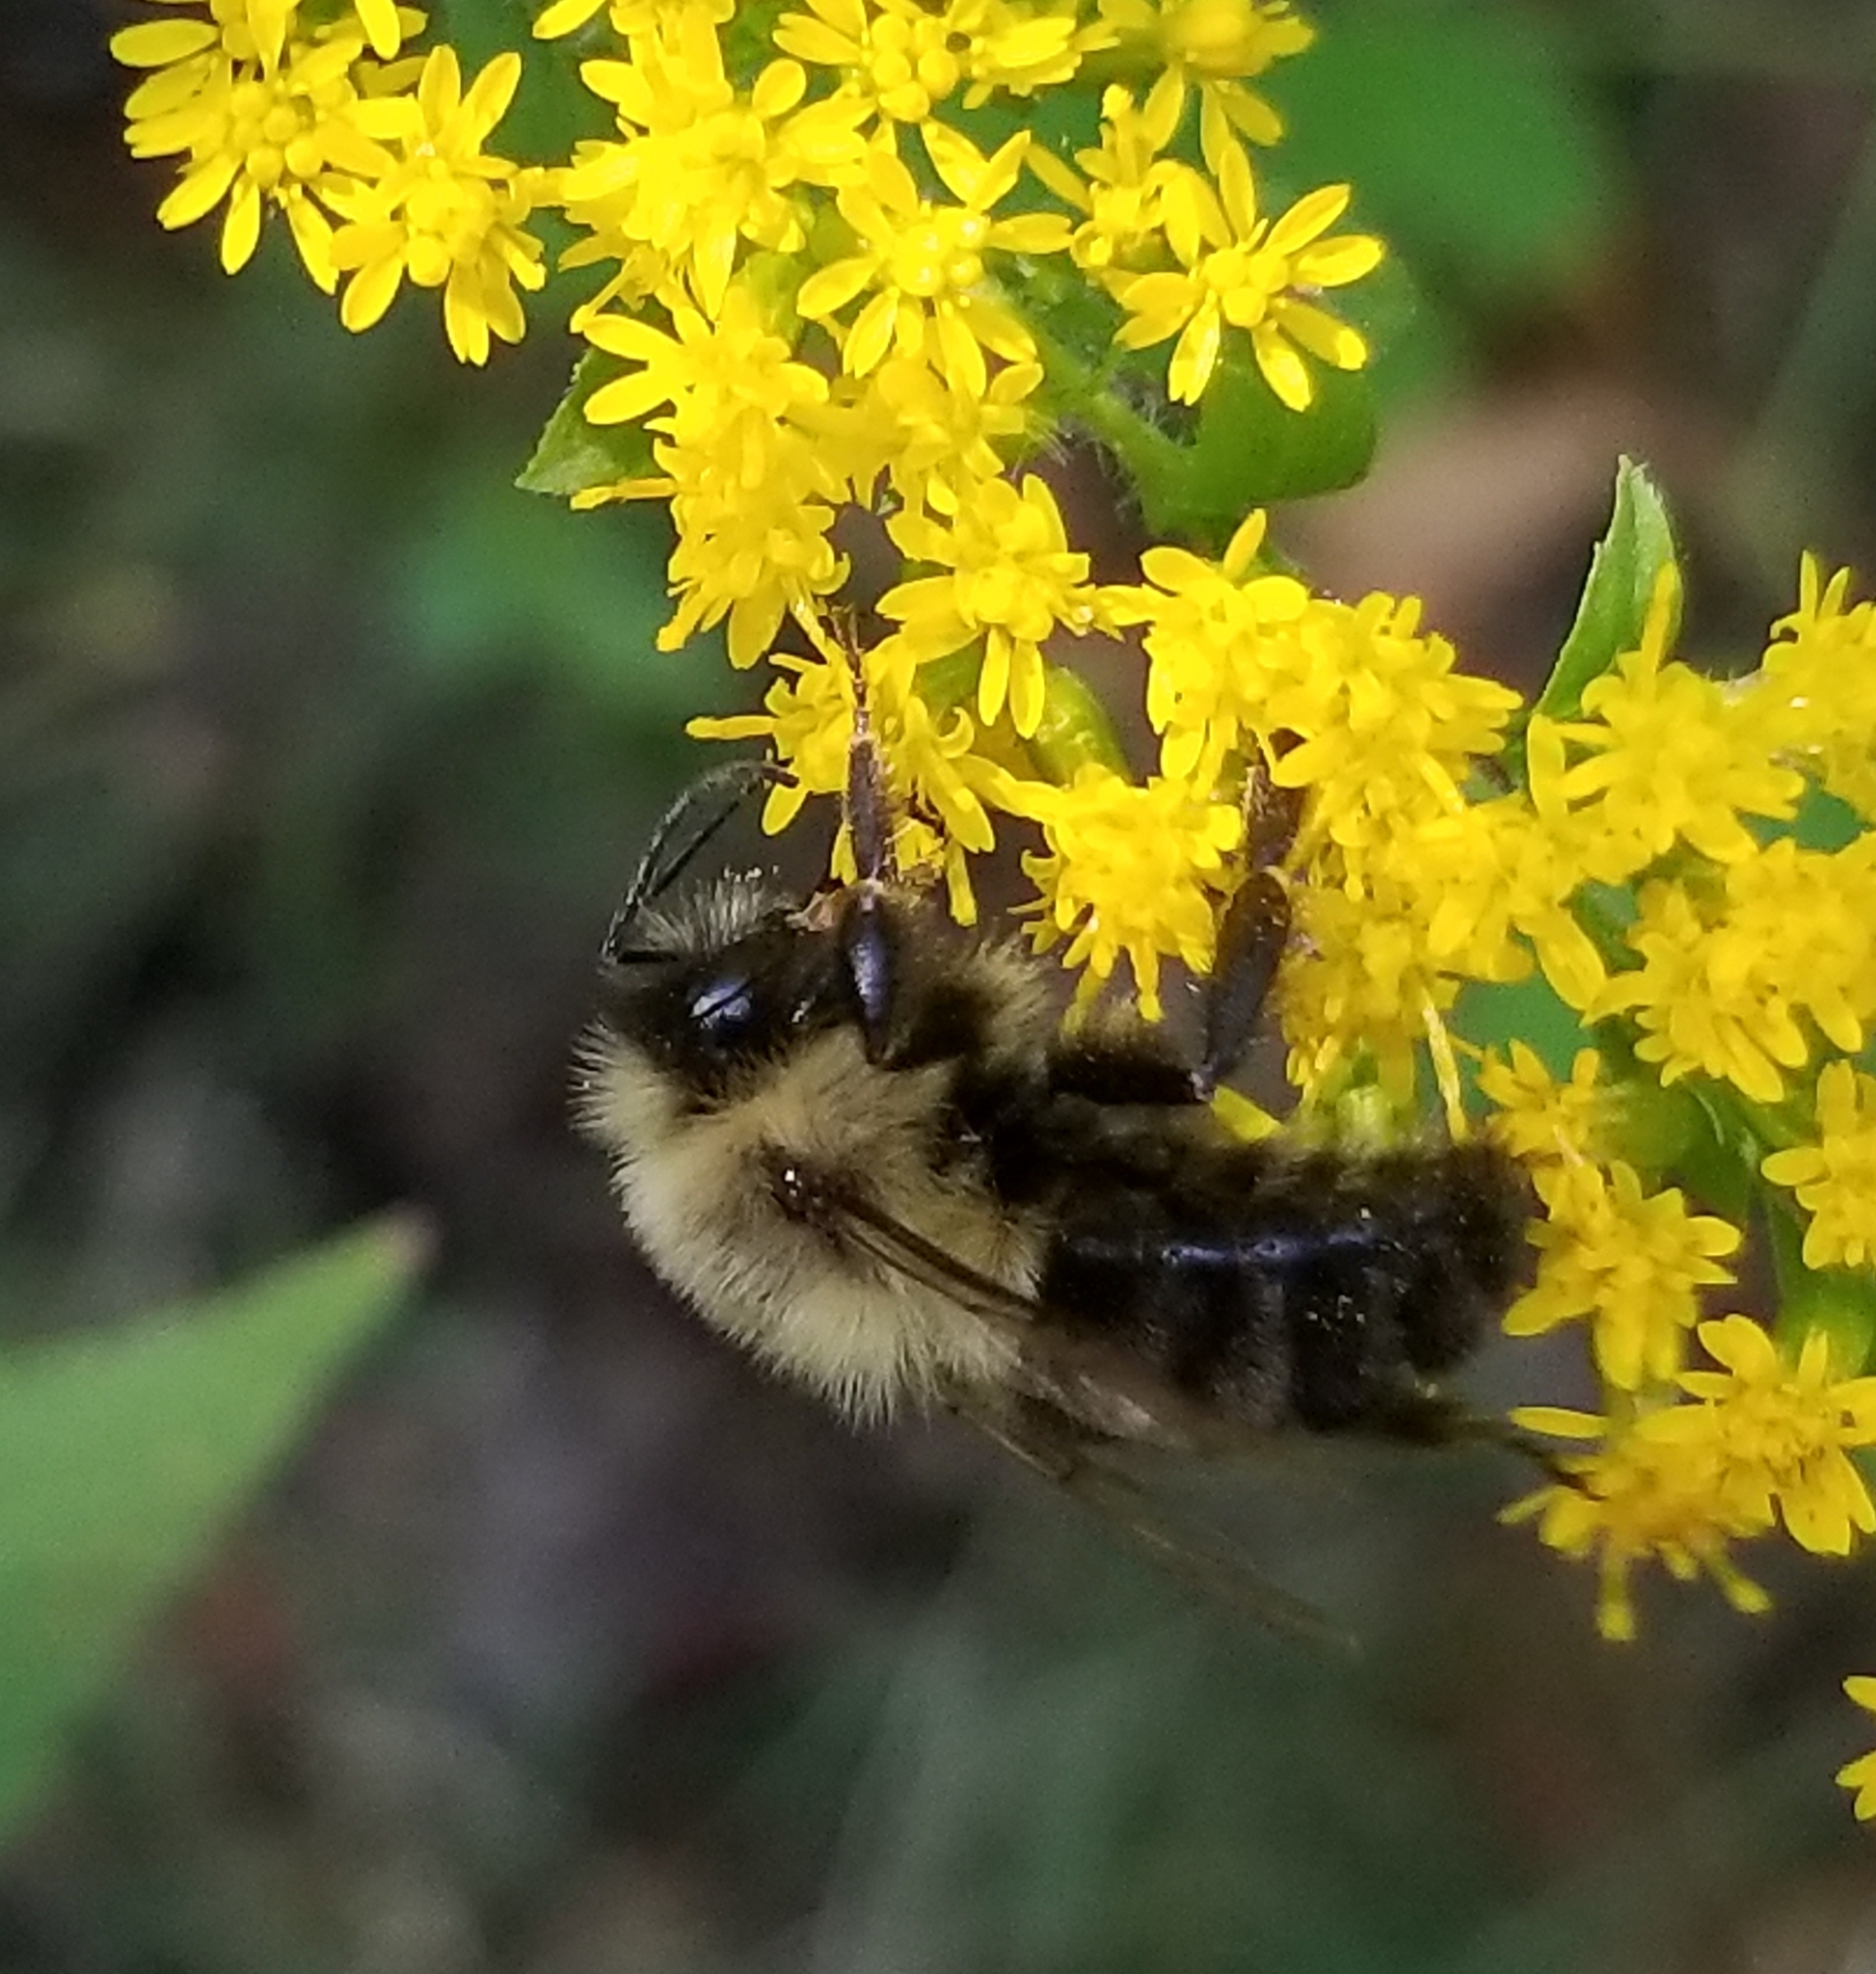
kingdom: Animalia
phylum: Arthropoda
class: Insecta
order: Hymenoptera
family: Apidae
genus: Bombus
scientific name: Bombus impatiens
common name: Common eastern bumble bee
